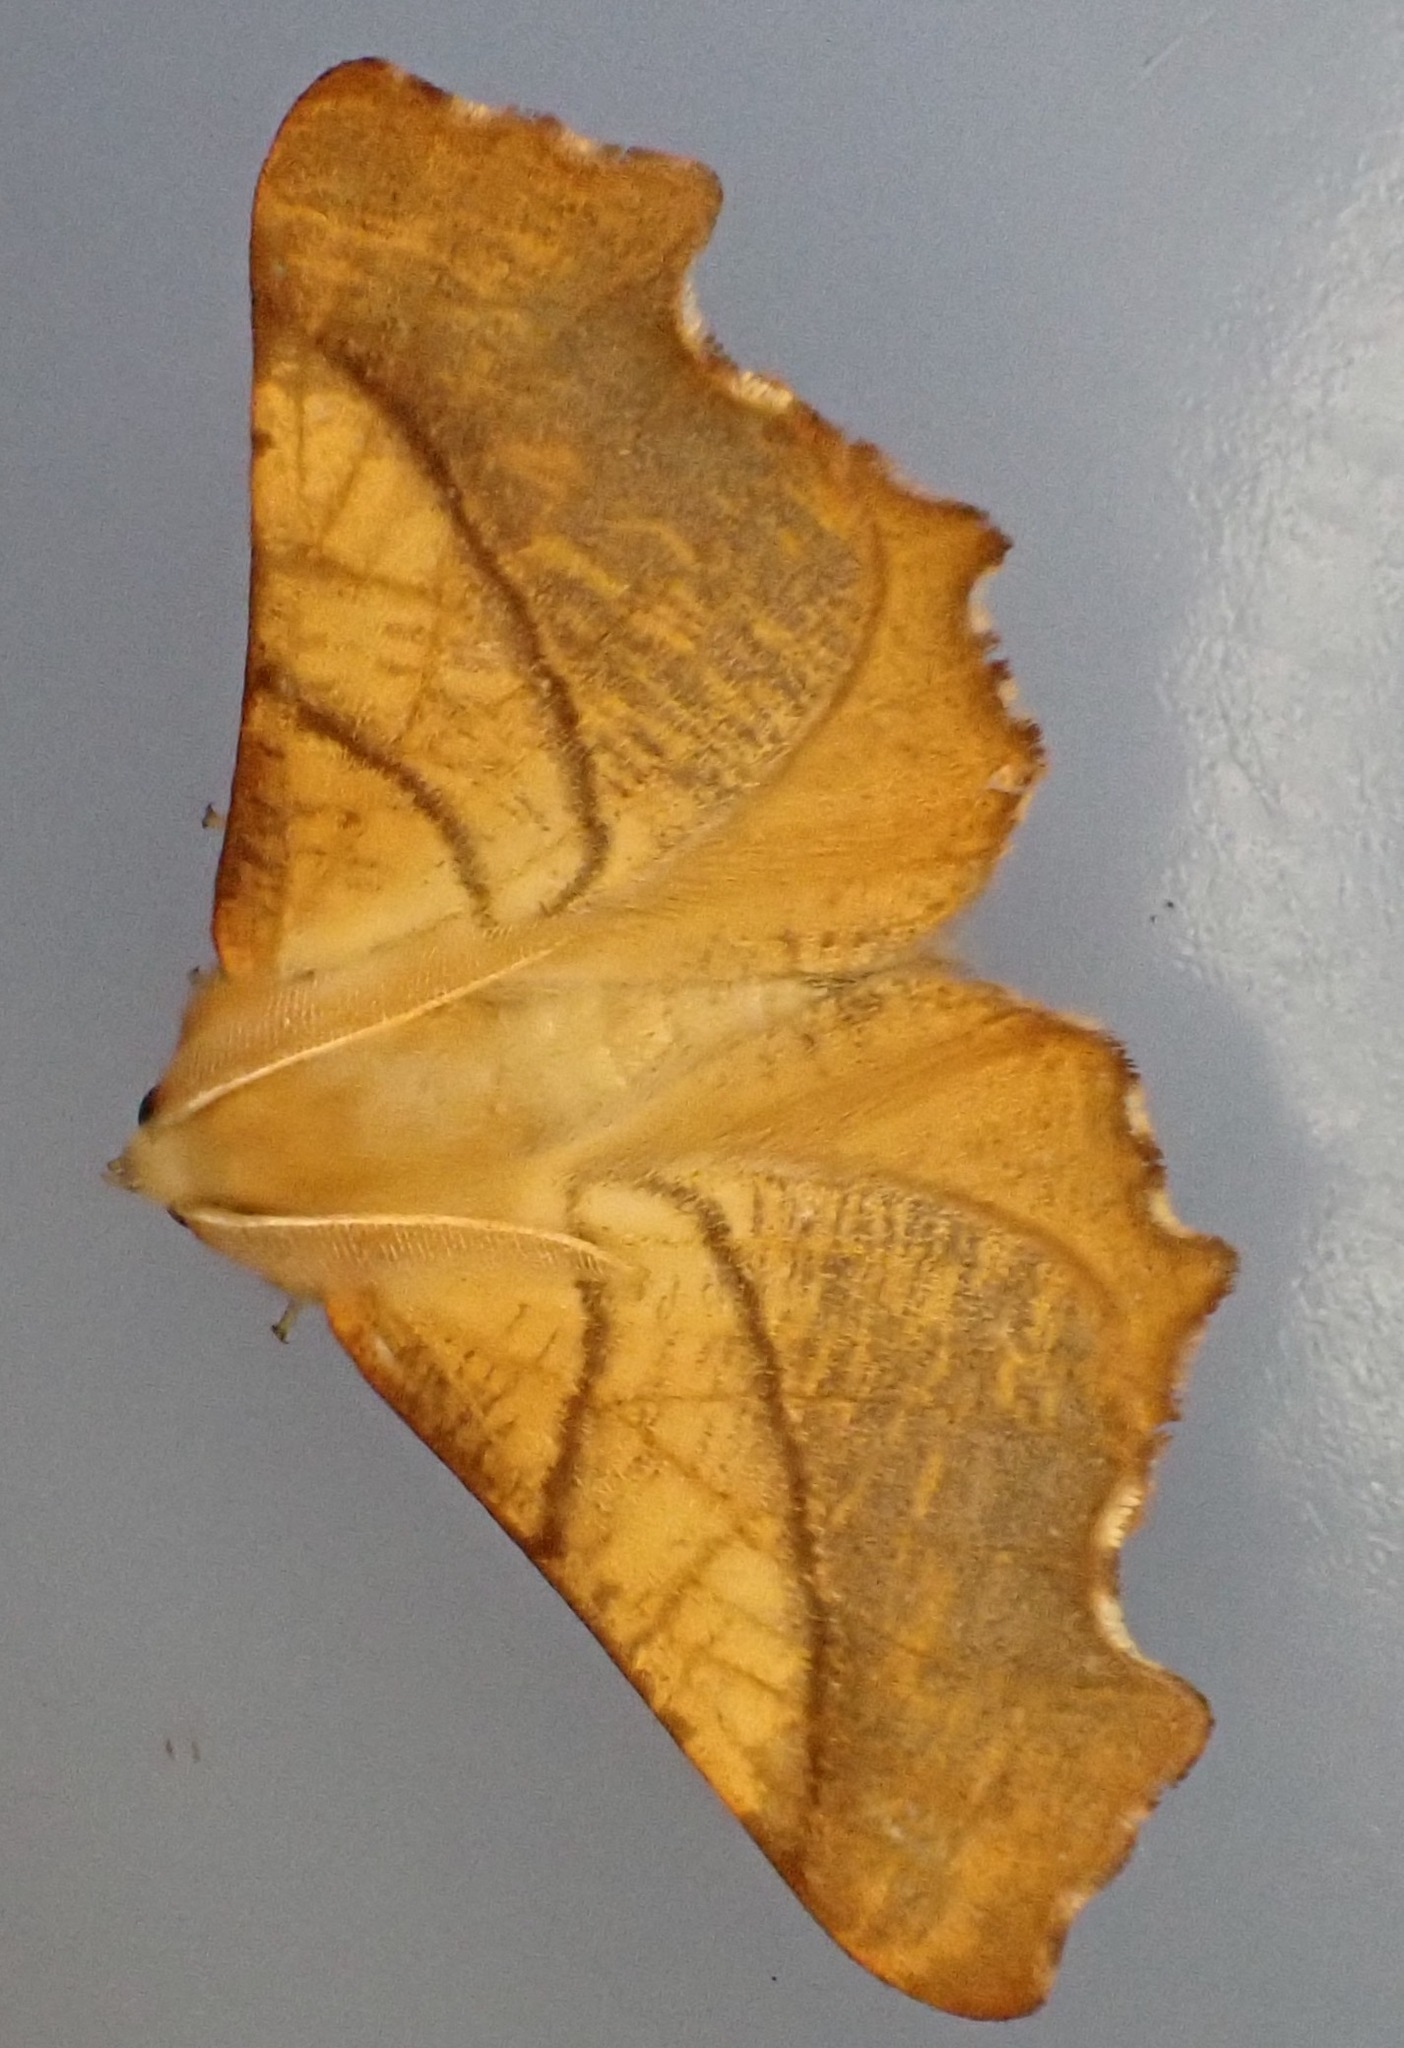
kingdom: Animalia
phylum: Arthropoda
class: Insecta
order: Lepidoptera
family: Geometridae
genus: Ennomos
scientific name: Ennomos fuscantaria
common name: Dusky thorn
